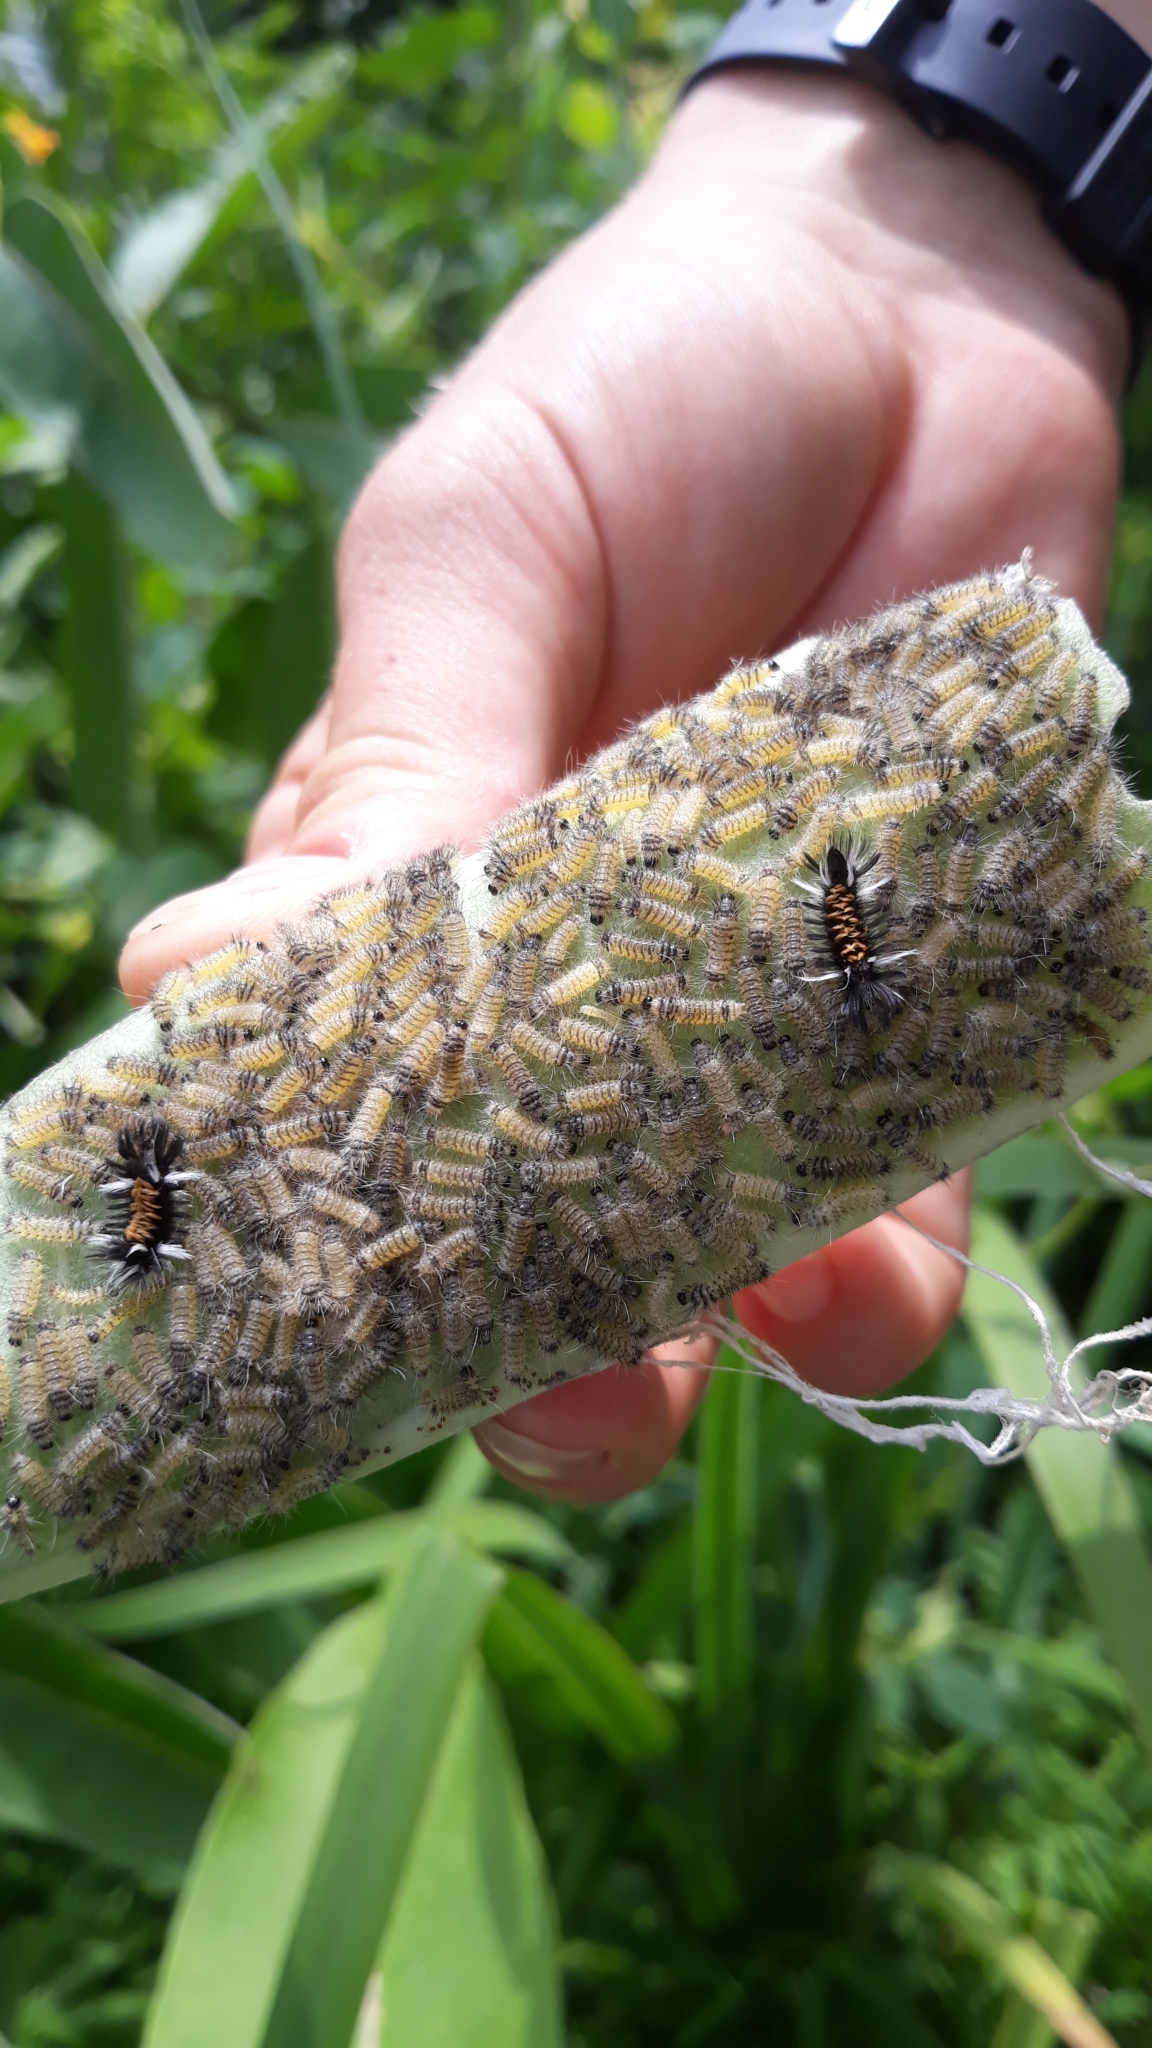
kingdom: Animalia
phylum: Arthropoda
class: Insecta
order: Lepidoptera
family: Erebidae
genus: Euchaetes
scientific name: Euchaetes egle
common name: Milkweed tussock moth
